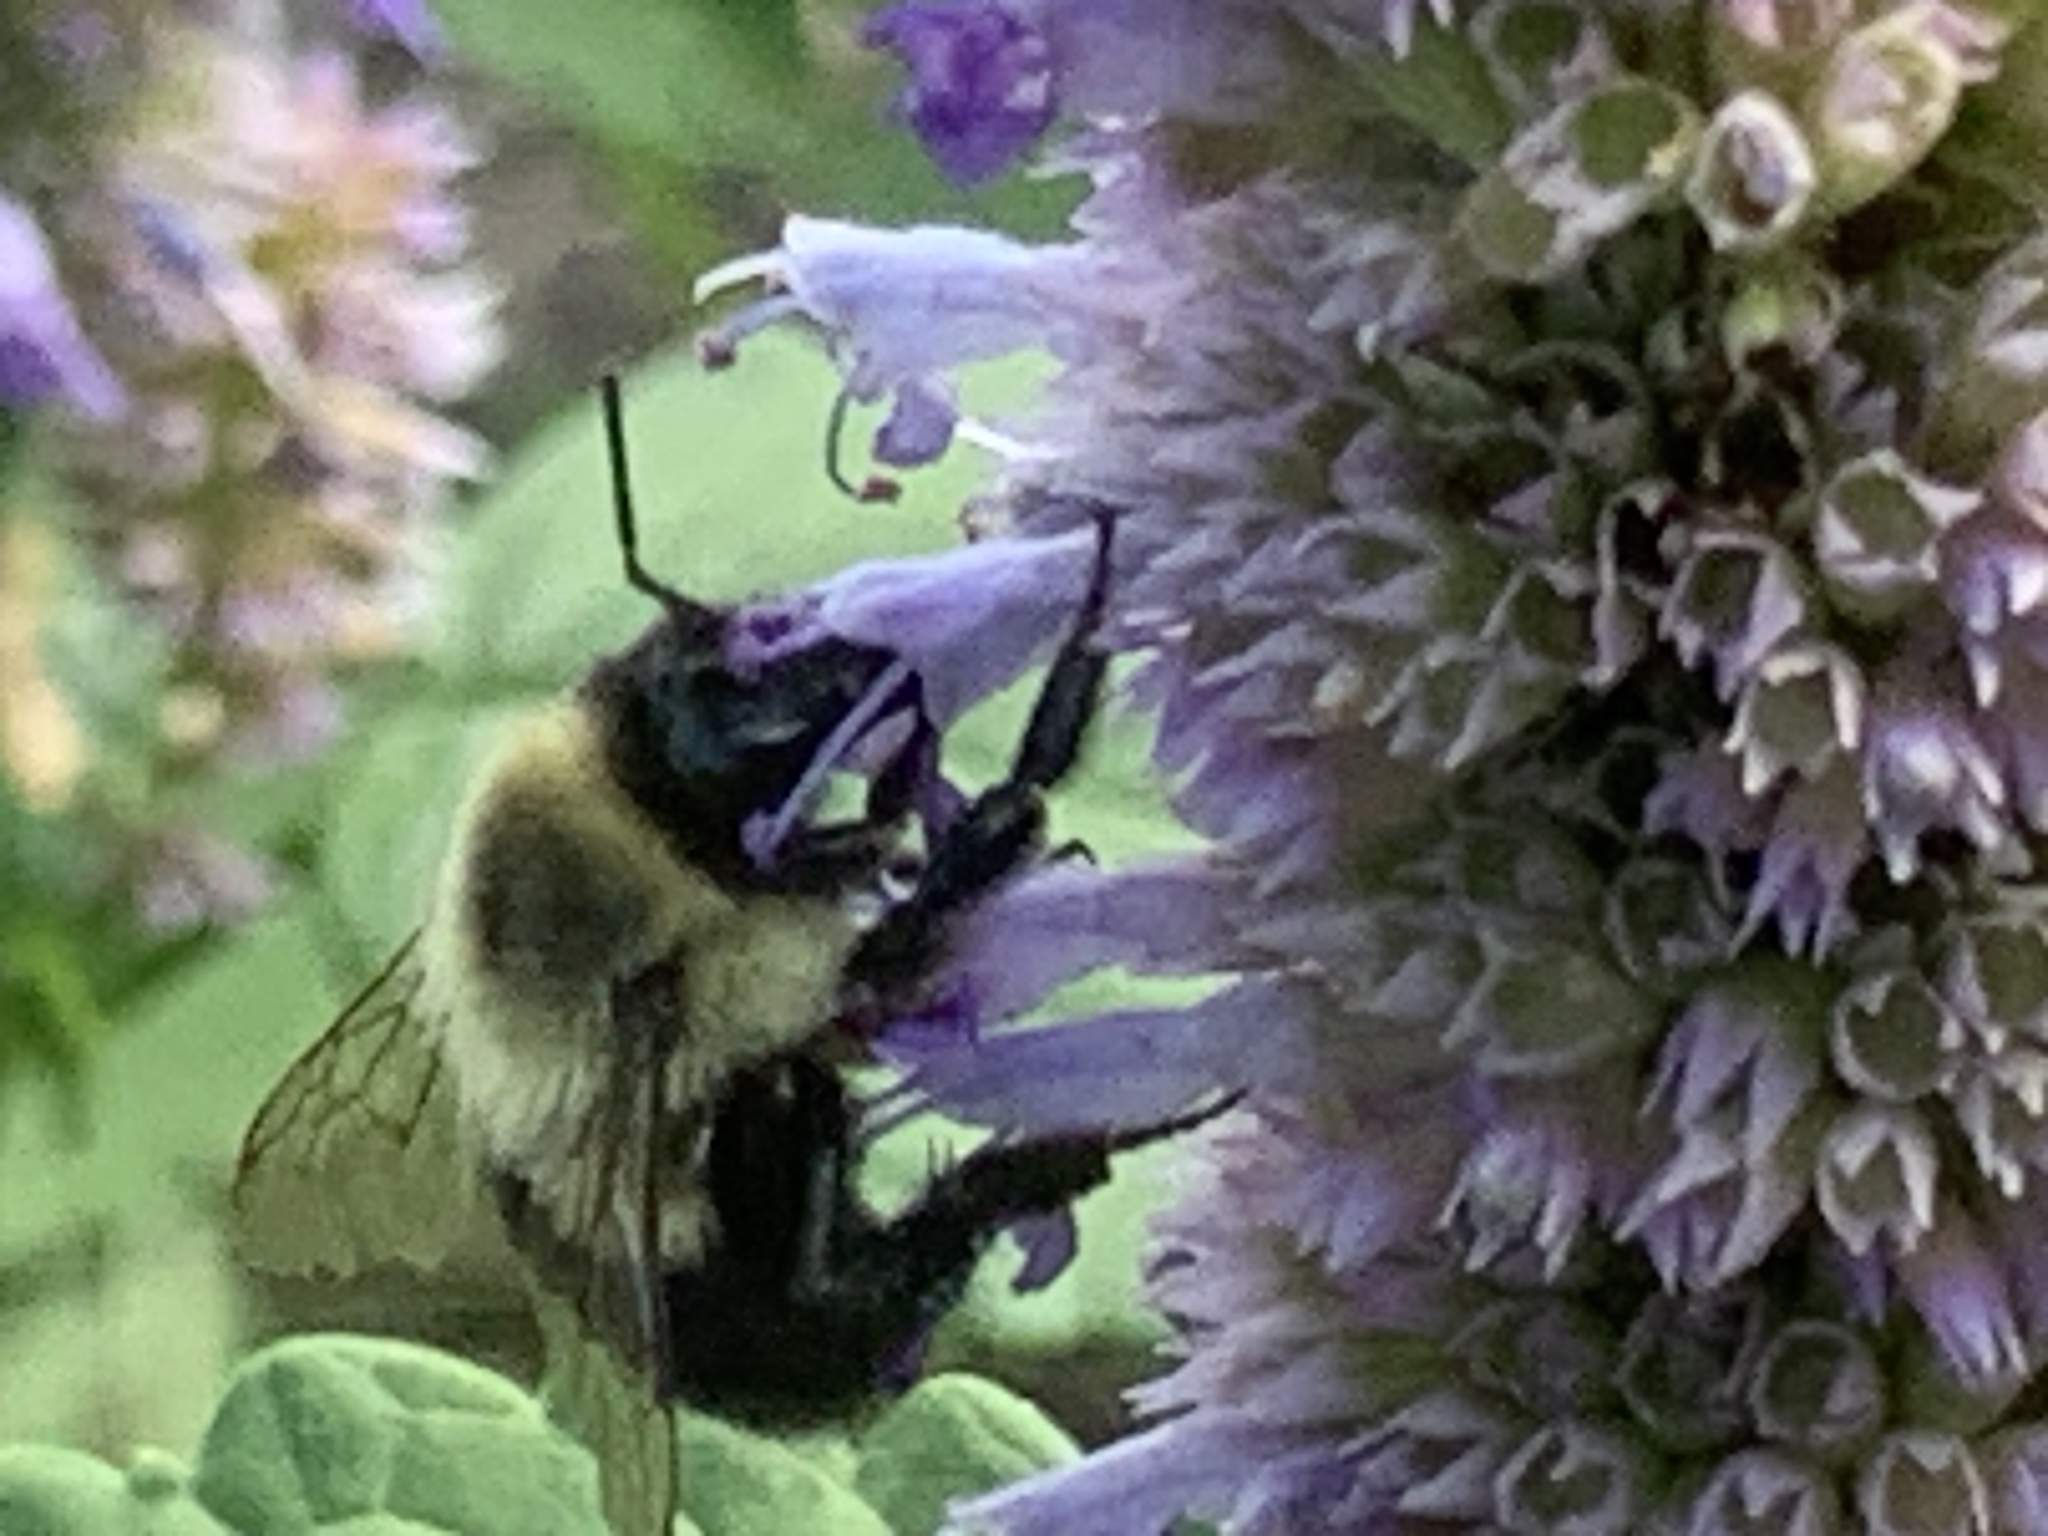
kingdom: Animalia
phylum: Arthropoda
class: Insecta
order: Hymenoptera
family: Apidae
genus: Bombus
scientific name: Bombus impatiens
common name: Common eastern bumble bee
